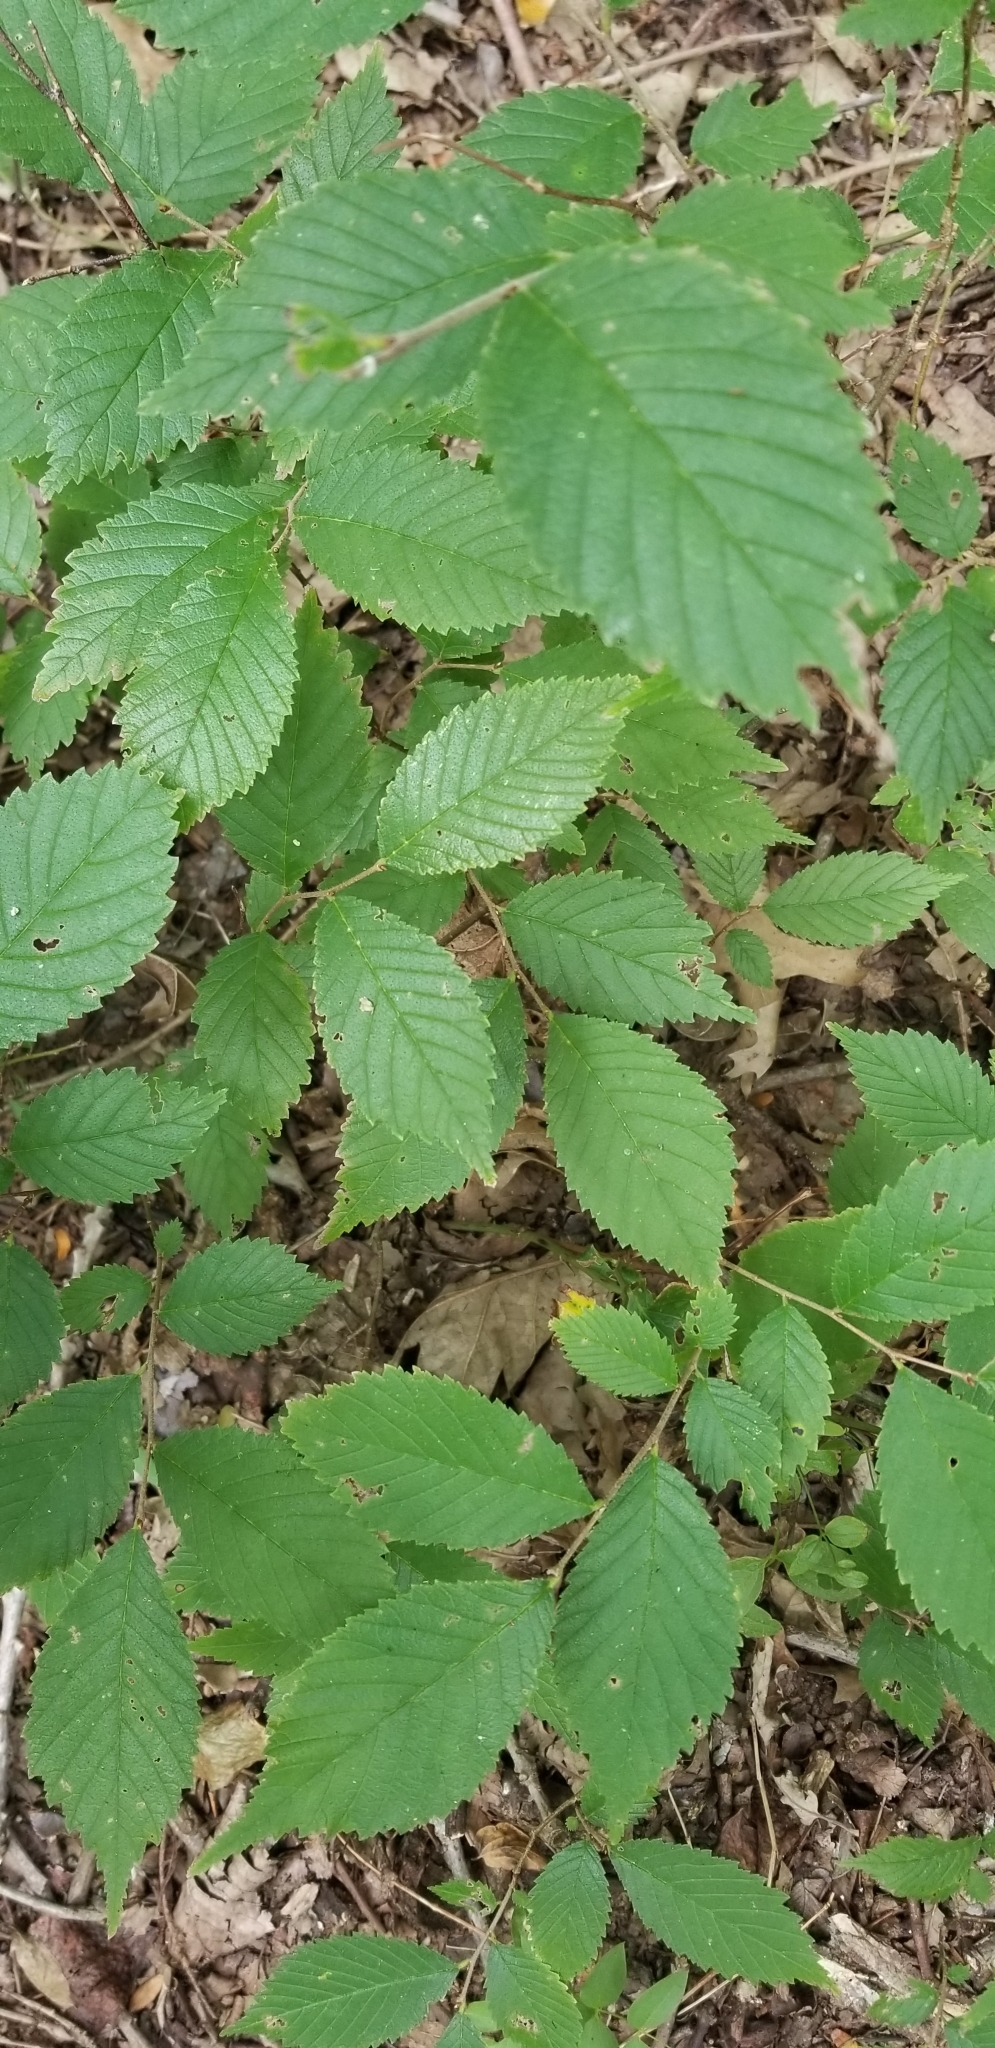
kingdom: Plantae
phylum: Tracheophyta
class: Magnoliopsida
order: Rosales
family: Ulmaceae
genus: Ulmus
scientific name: Ulmus americana
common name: American elm
